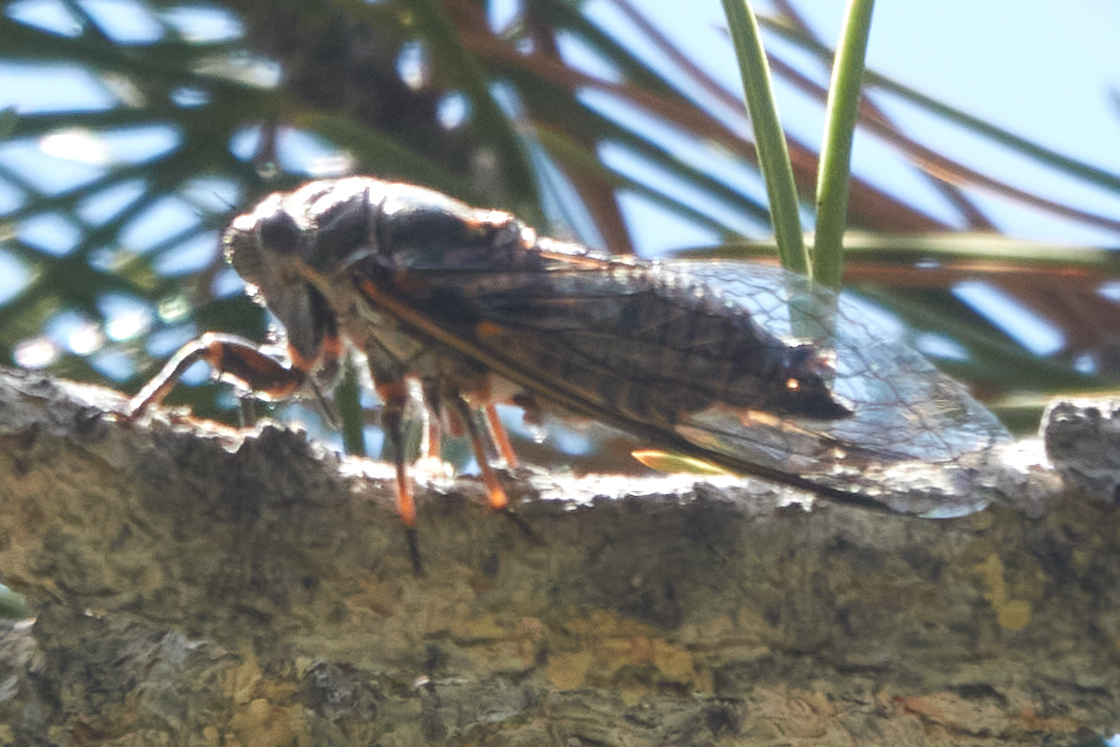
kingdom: Animalia
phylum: Arthropoda
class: Insecta
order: Hemiptera
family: Cicadidae
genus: Okanagana
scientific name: Okanagana bella
